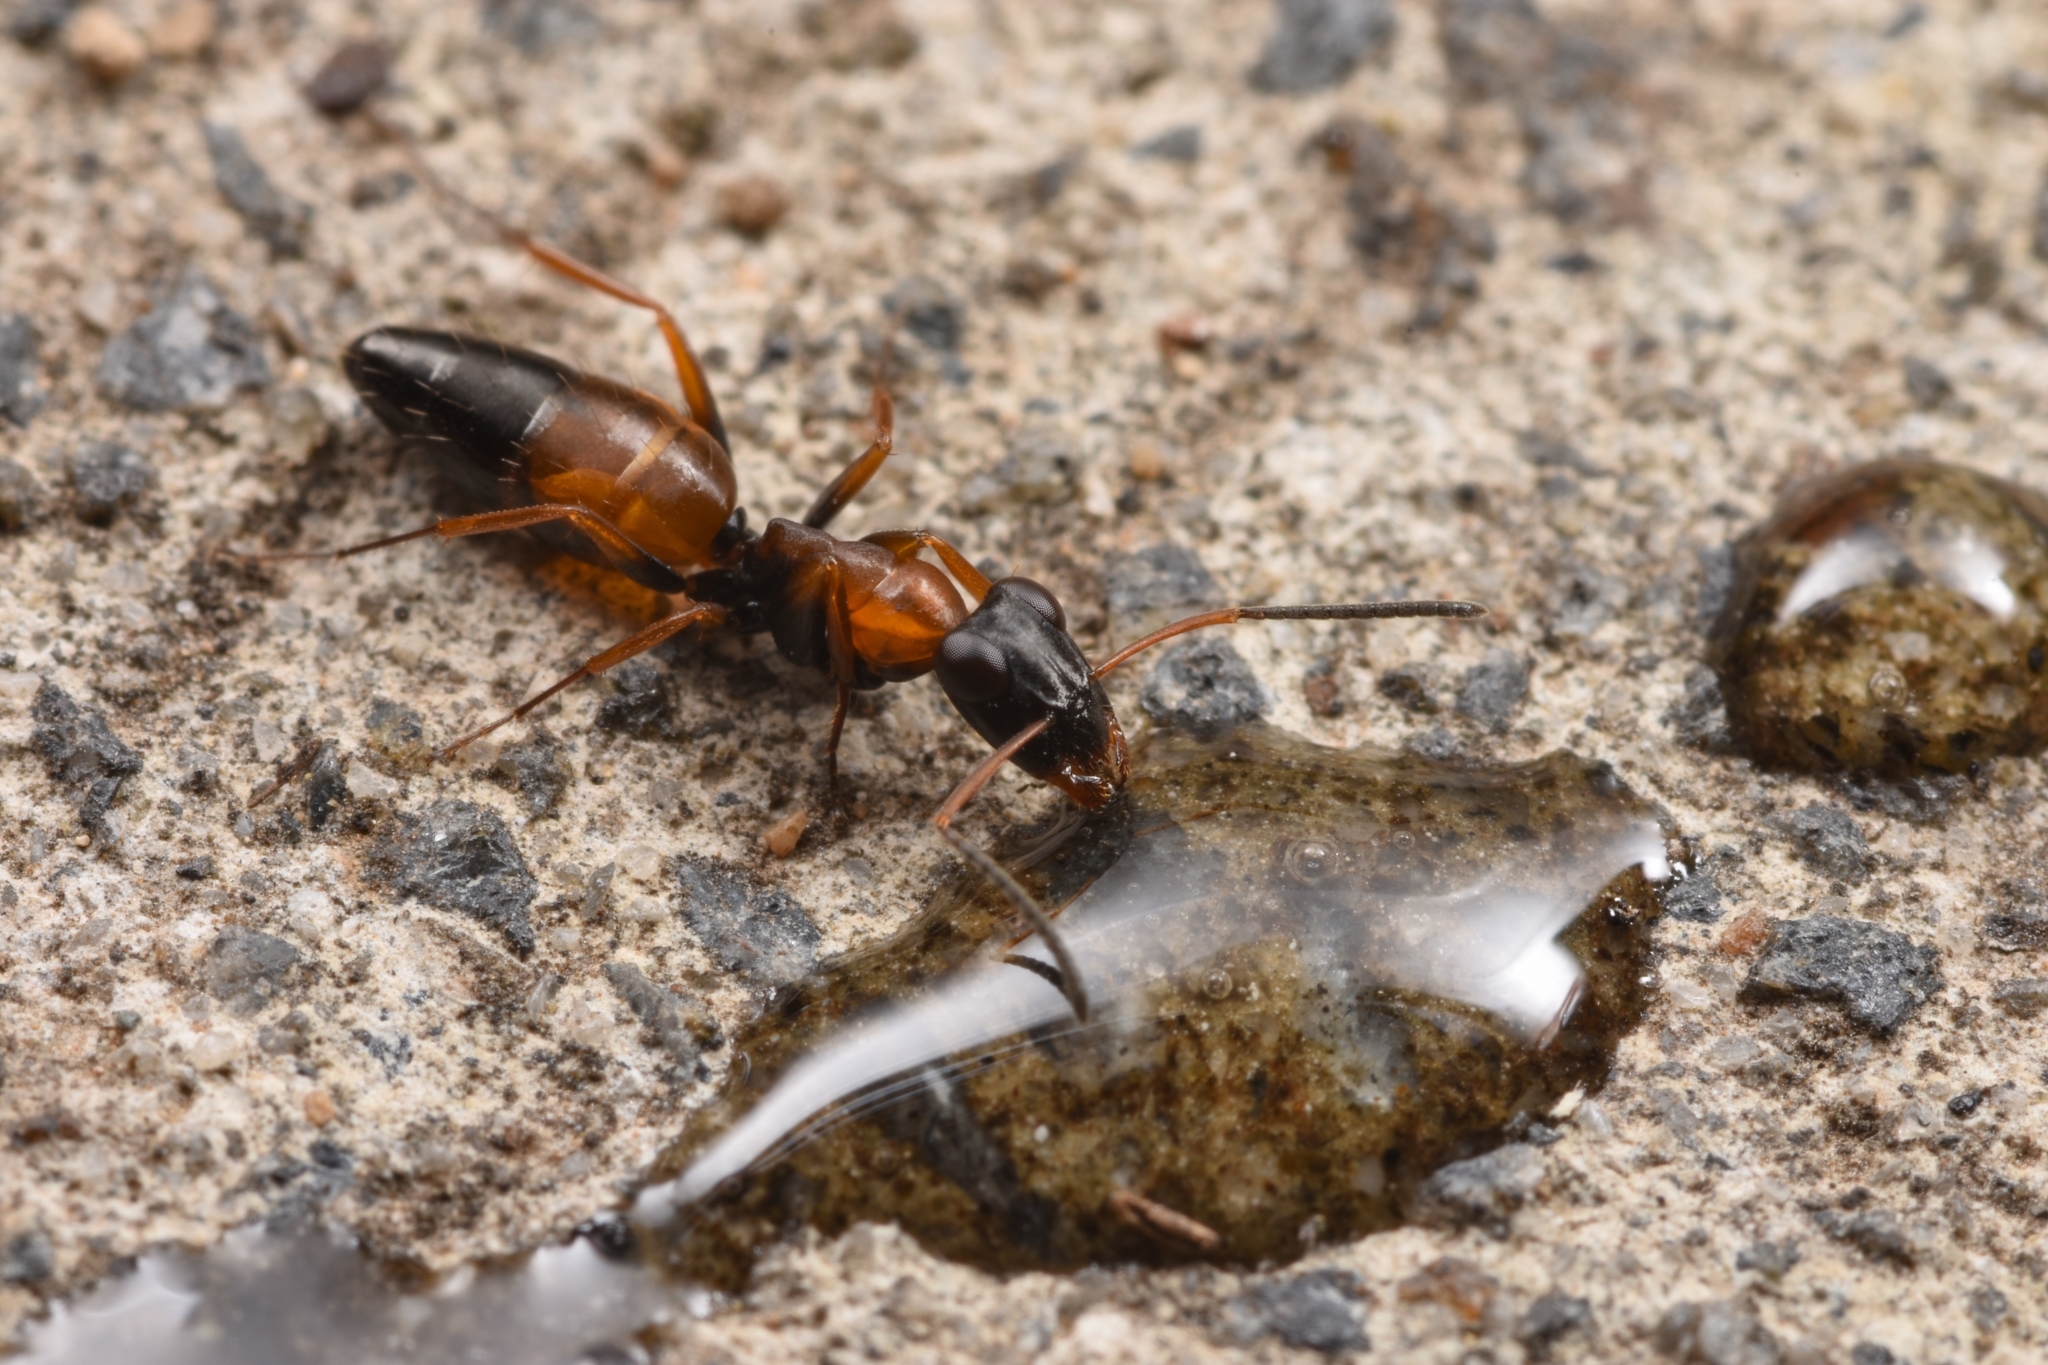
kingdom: Animalia
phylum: Arthropoda
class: Insecta
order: Hymenoptera
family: Formicidae
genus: Opisthopsis
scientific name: Opisthopsis pictus
